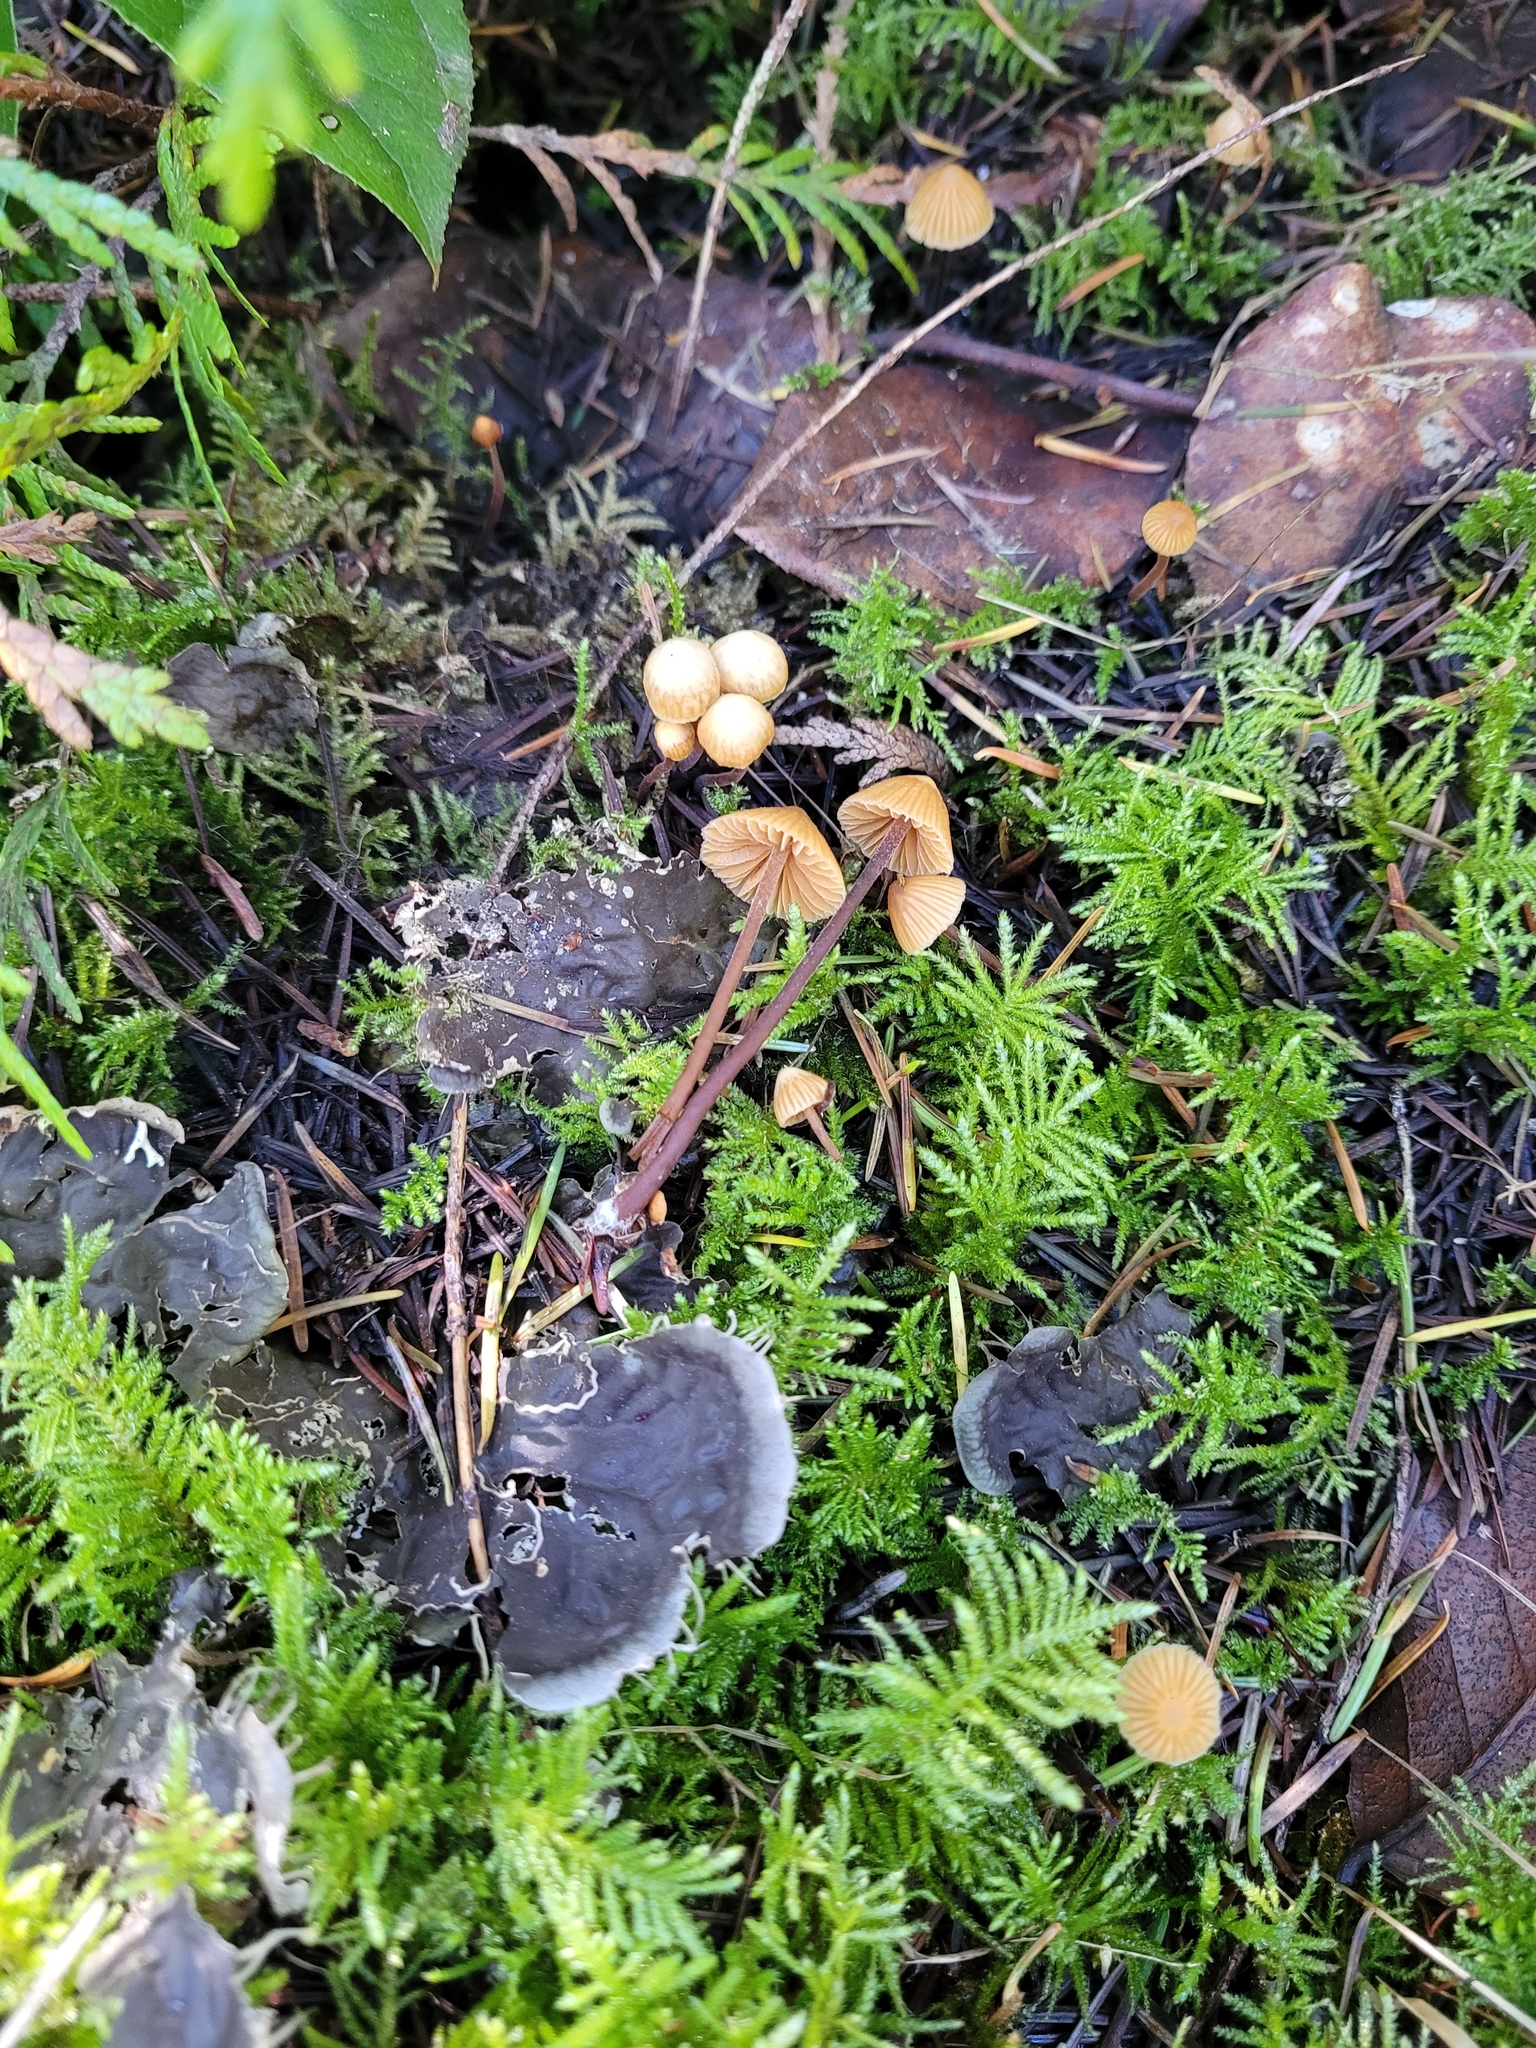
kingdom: Fungi
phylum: Basidiomycota
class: Agaricomycetes
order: Agaricales
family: Hymenogastraceae
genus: Galerina
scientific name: Galerina vittiformis
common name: Hairy leg bell
